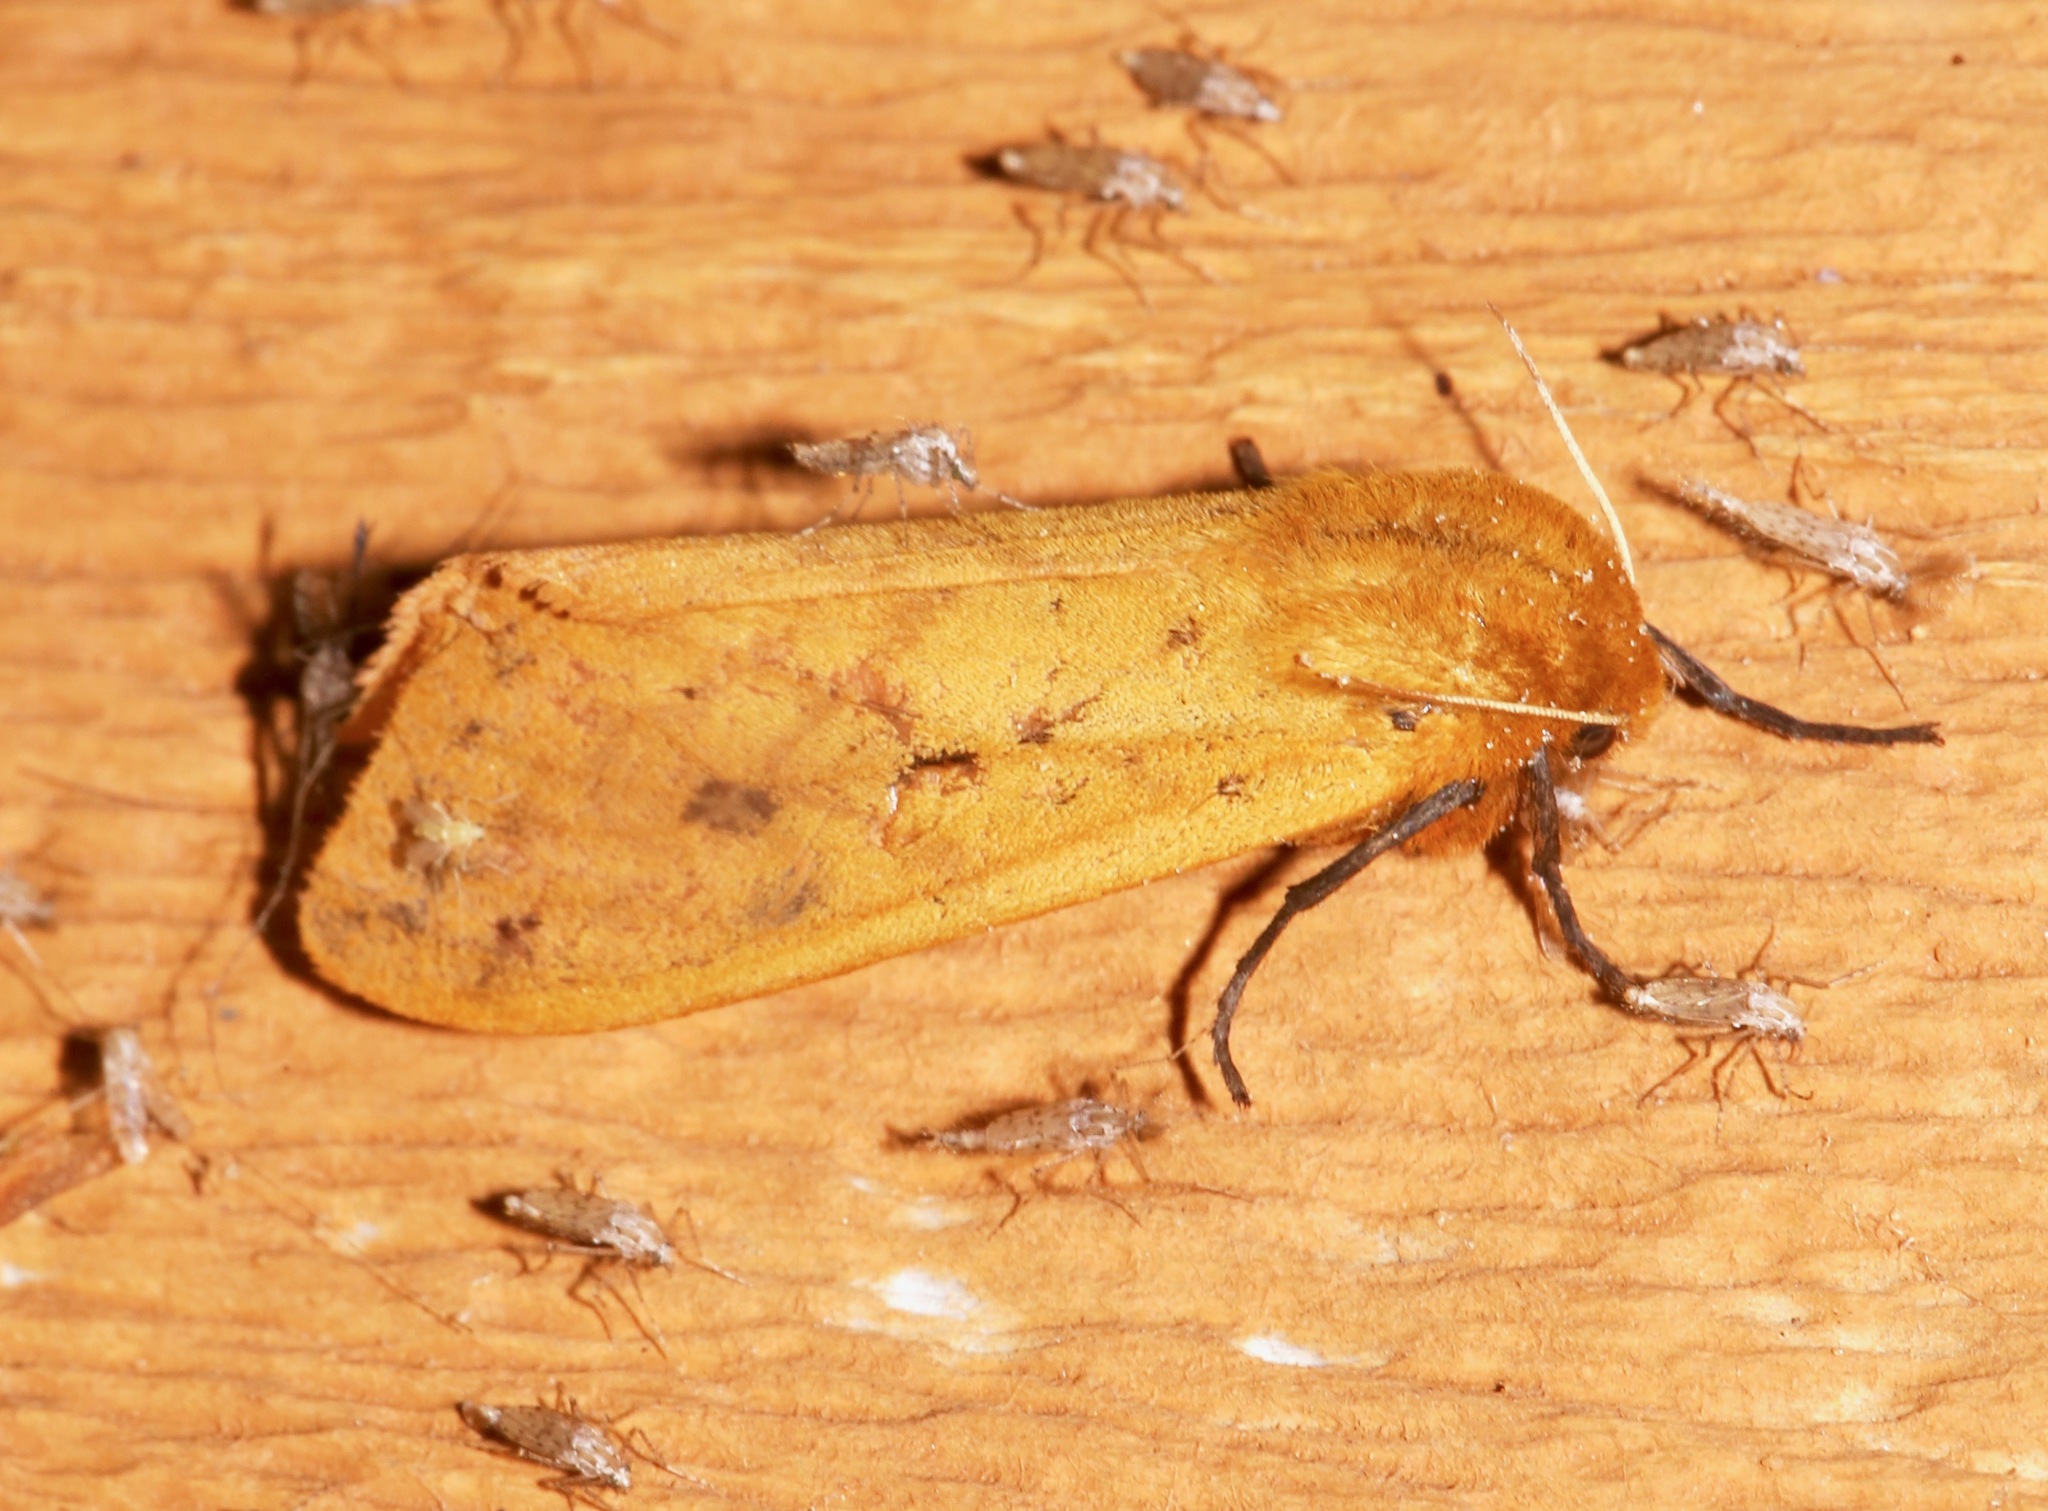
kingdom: Animalia
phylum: Arthropoda
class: Insecta
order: Lepidoptera
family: Erebidae
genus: Pyrrharctia
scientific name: Pyrrharctia isabella
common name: Isabella tiger moth
